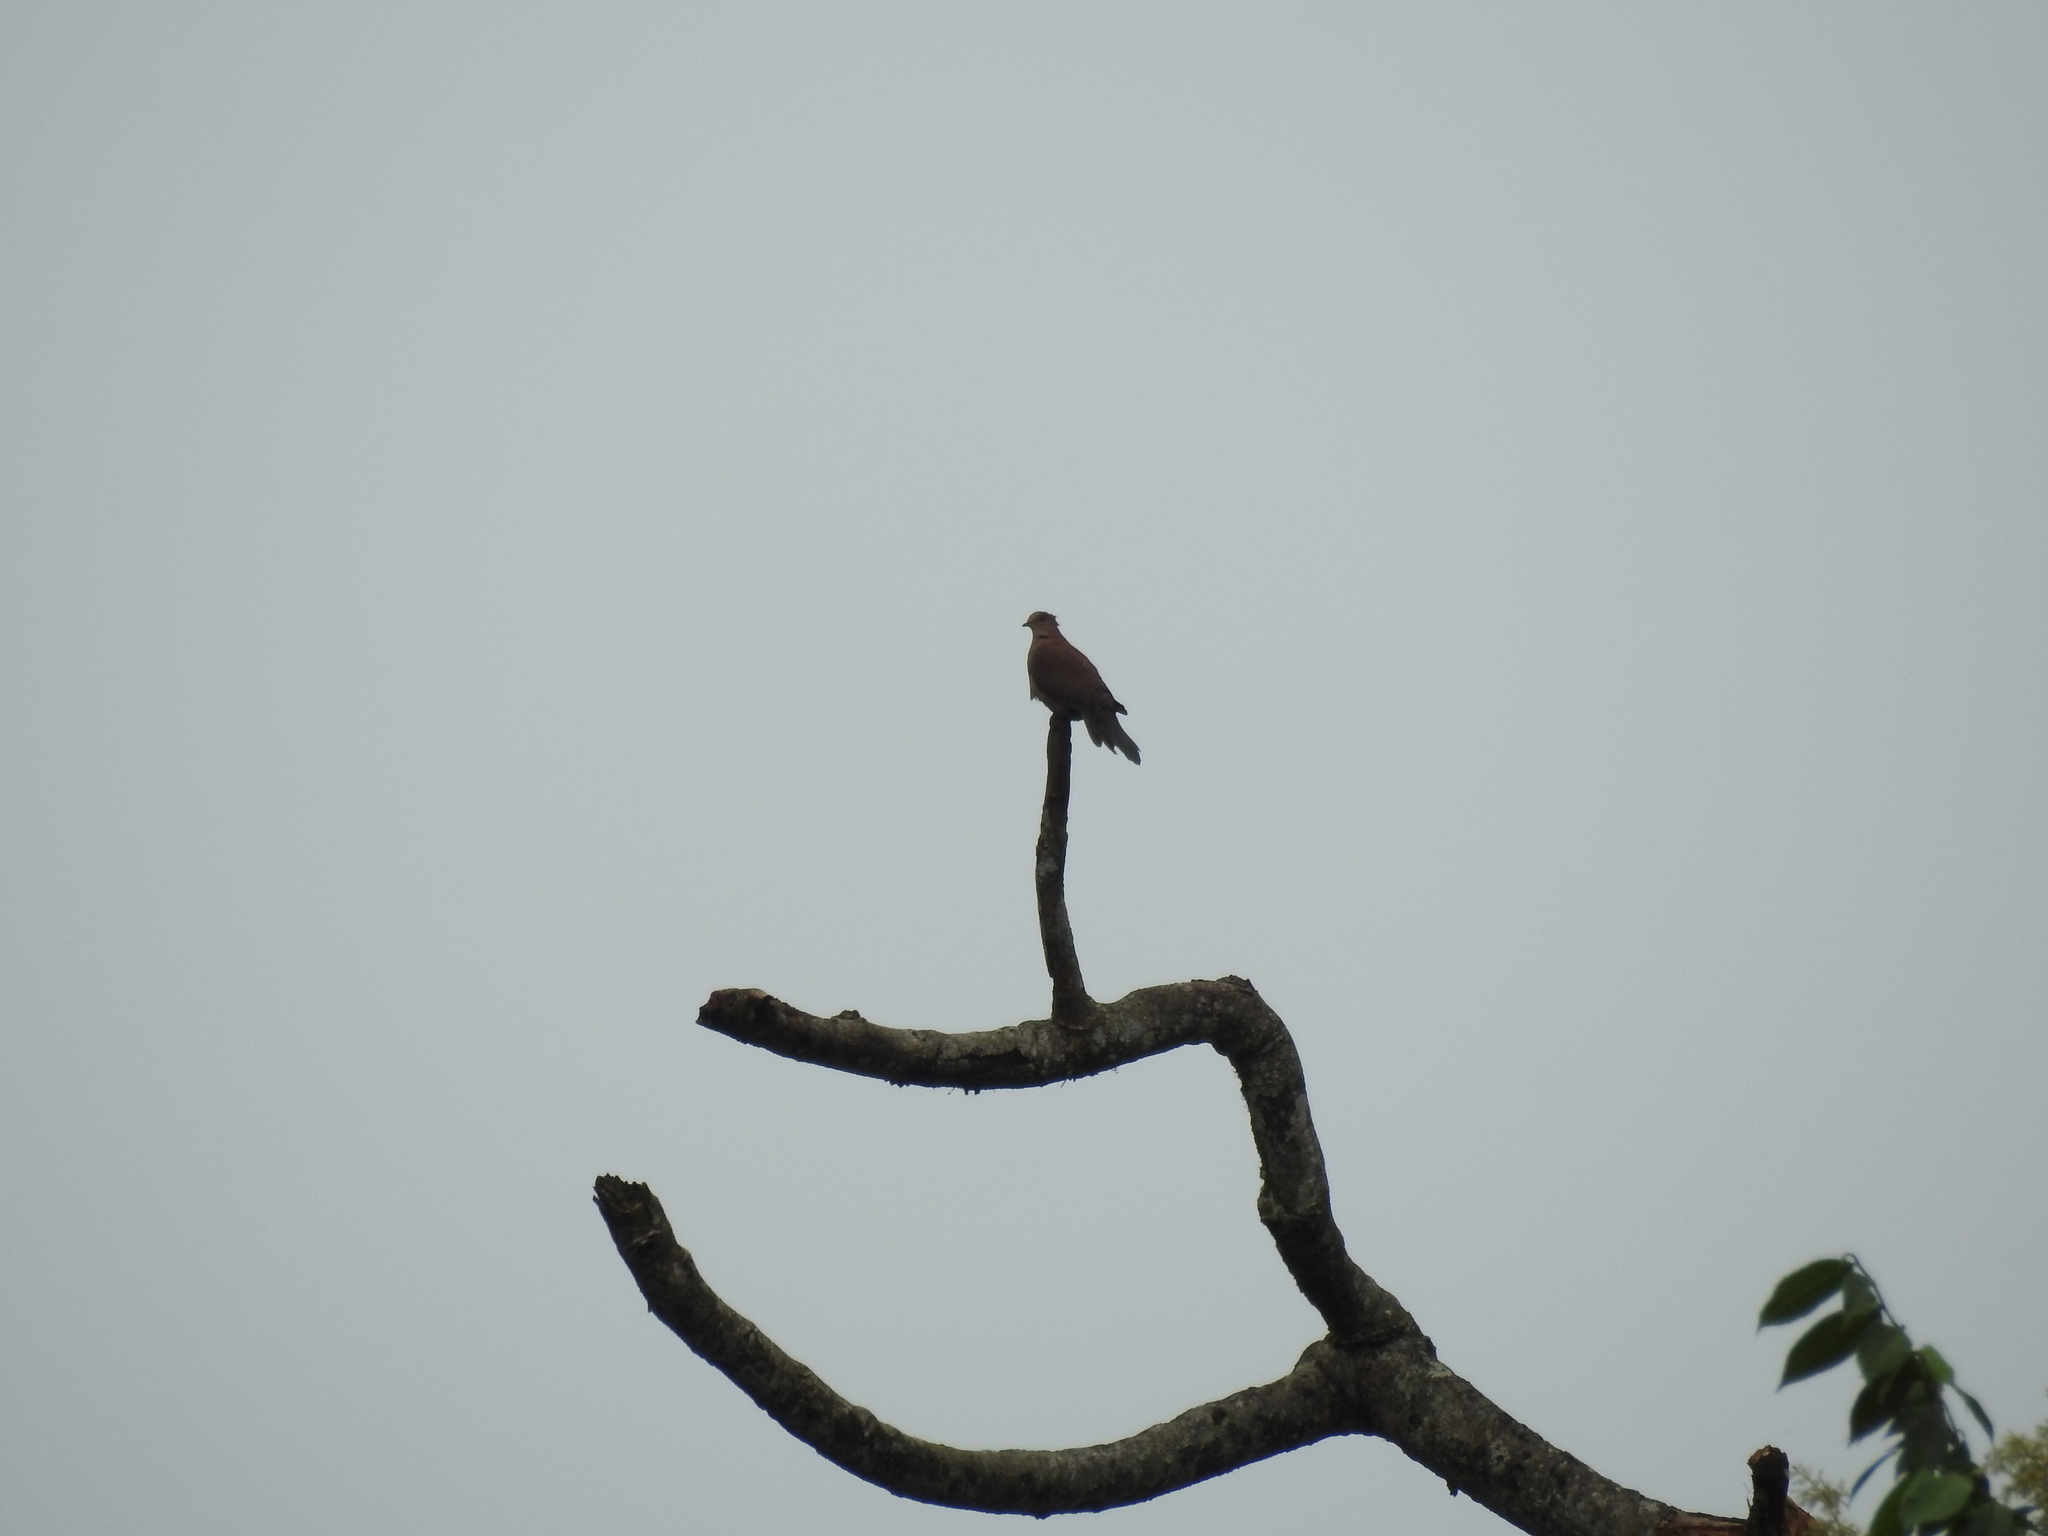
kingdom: Animalia
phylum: Chordata
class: Aves
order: Columbiformes
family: Columbidae
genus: Patagioenas
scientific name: Patagioenas subvinacea
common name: Ruddy pigeon
